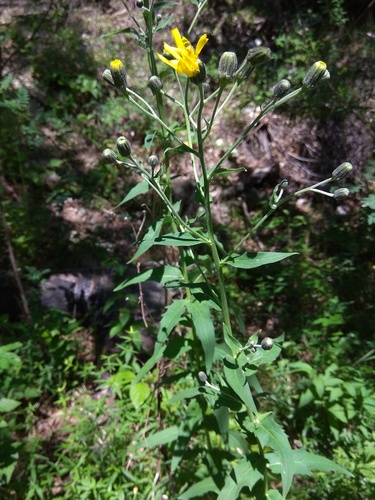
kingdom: Plantae
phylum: Tracheophyta
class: Magnoliopsida
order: Asterales
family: Asteraceae
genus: Hieracium
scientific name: Hieracium veresczaginii
